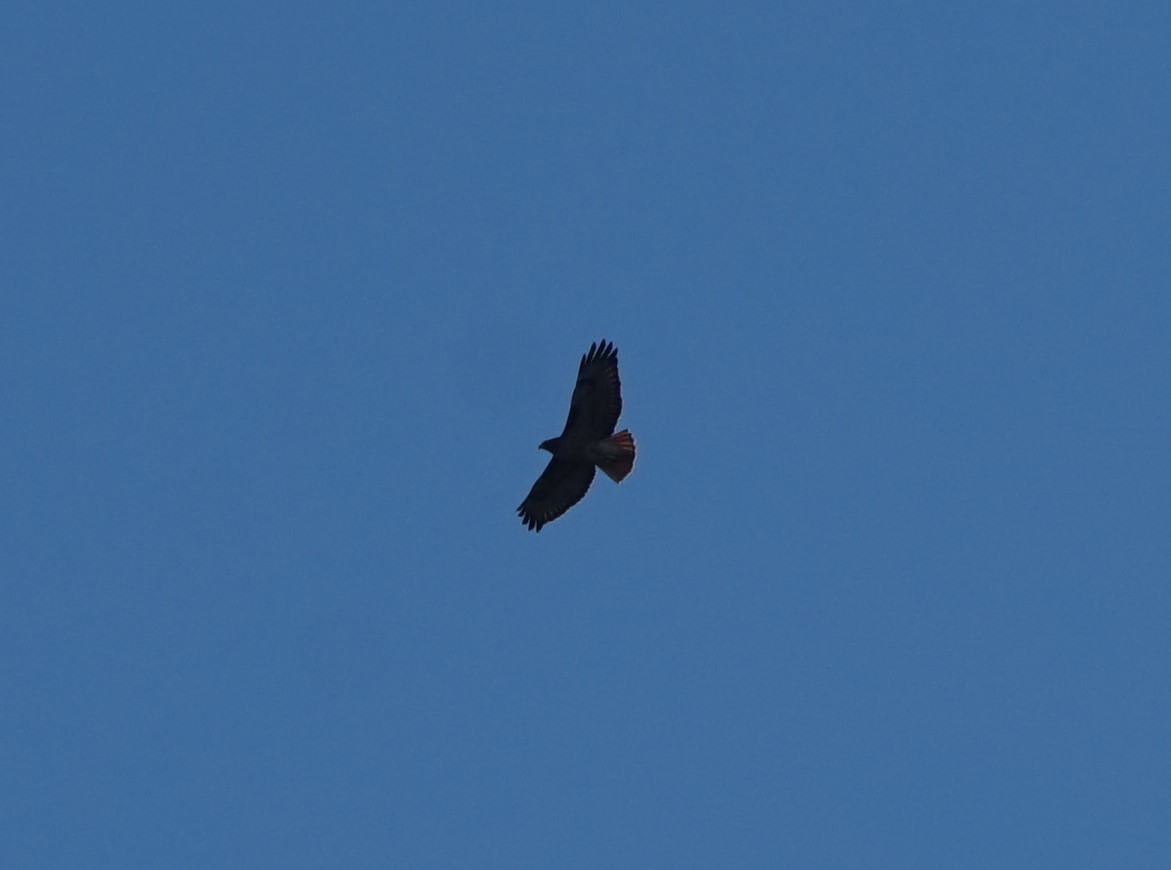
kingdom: Animalia
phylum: Chordata
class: Aves
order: Accipitriformes
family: Accipitridae
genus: Buteo
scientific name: Buteo jamaicensis
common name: Red-tailed hawk
